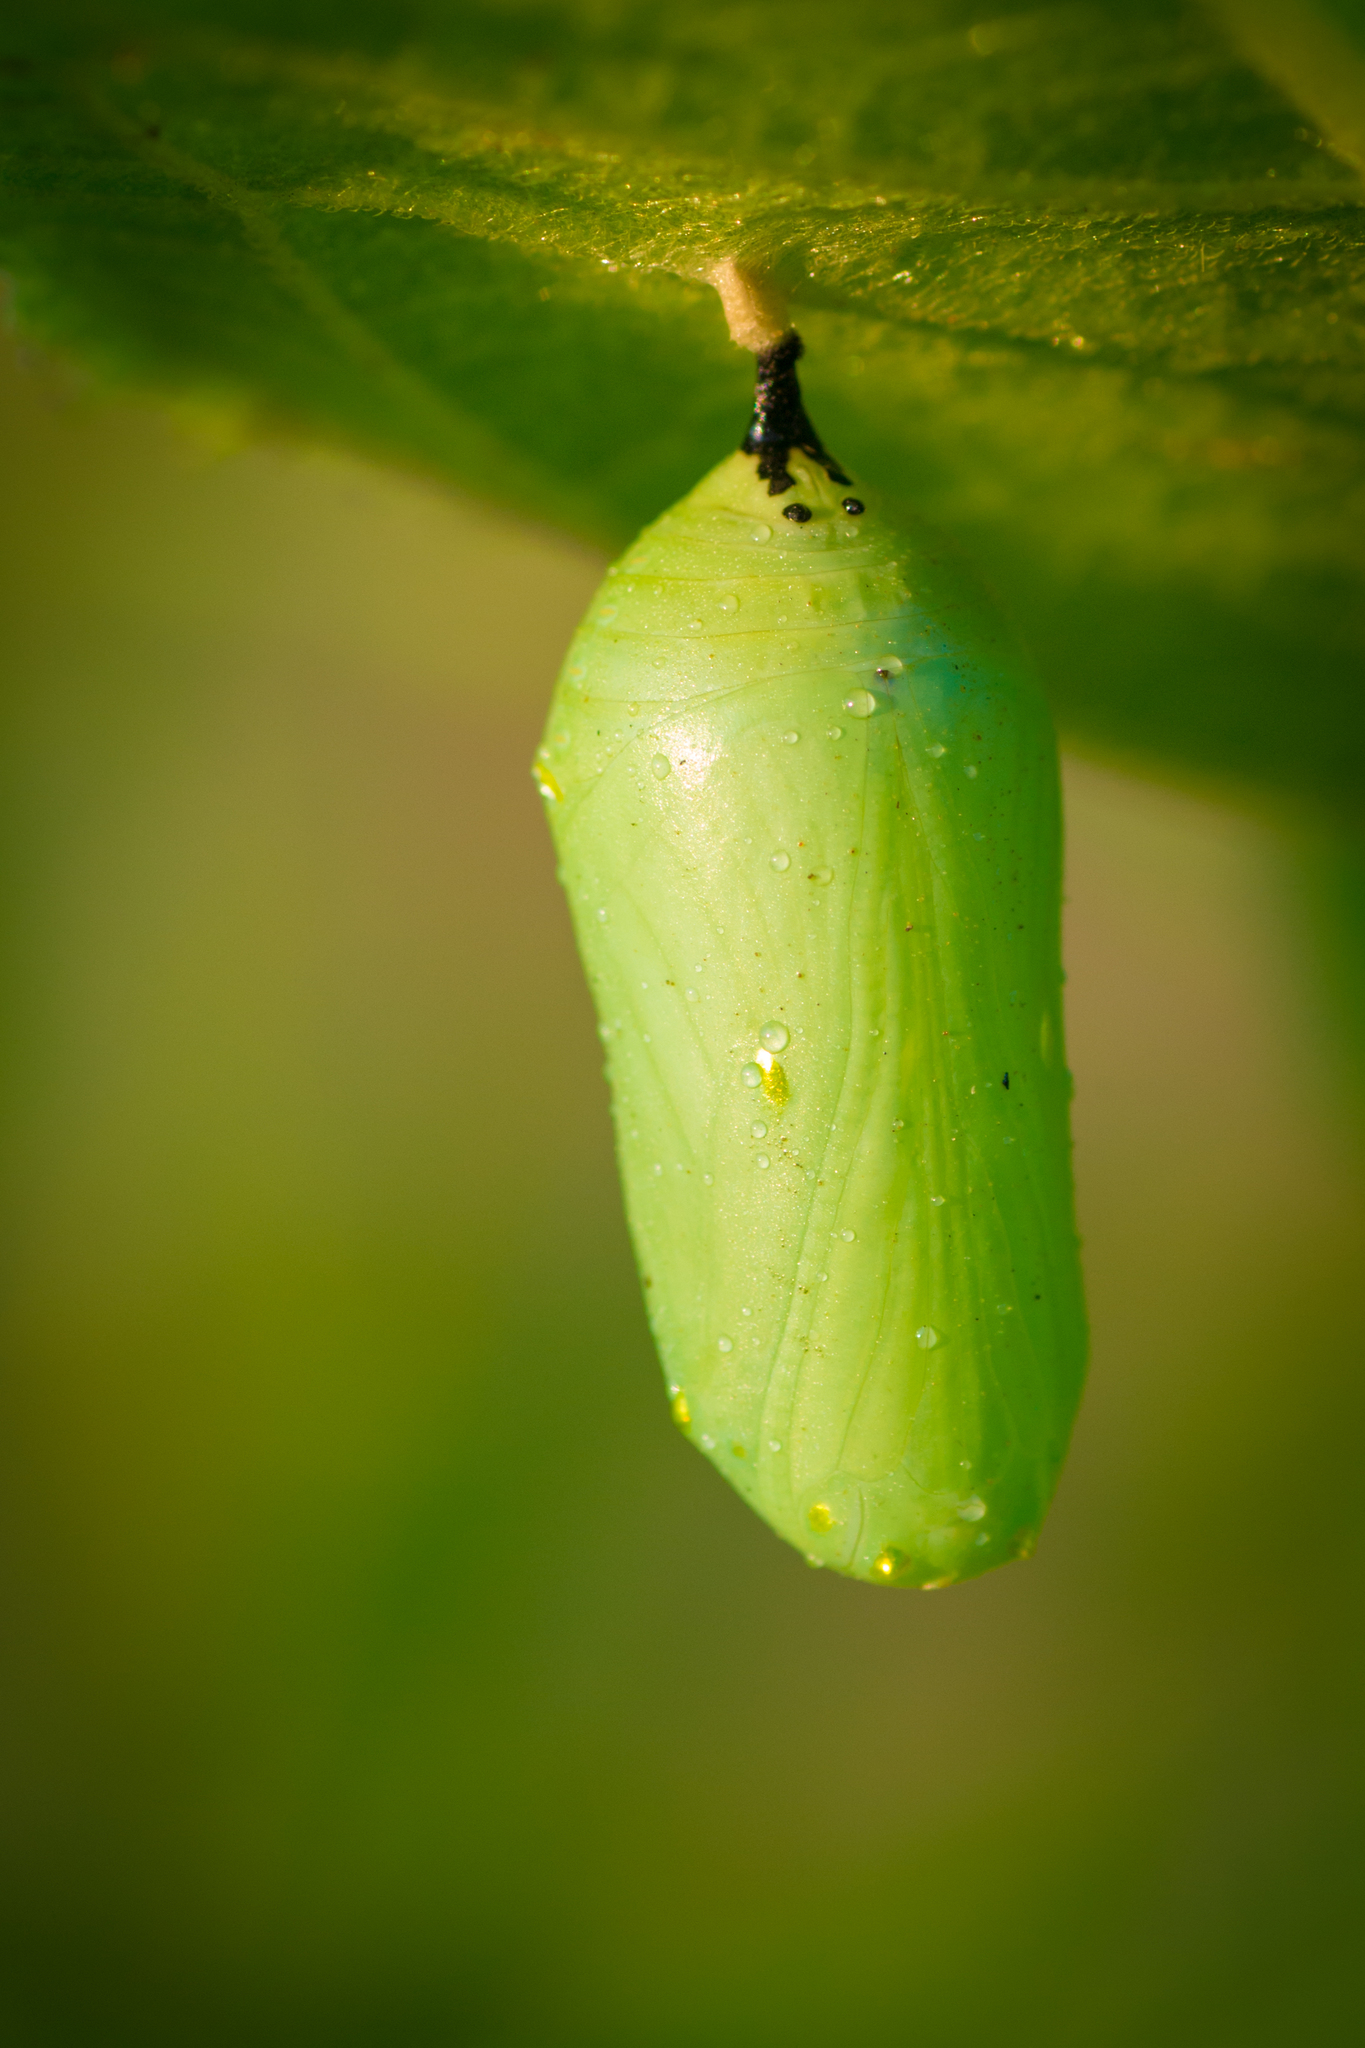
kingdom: Animalia
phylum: Arthropoda
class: Insecta
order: Lepidoptera
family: Nymphalidae
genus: Danaus
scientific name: Danaus plexippus
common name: Monarch
